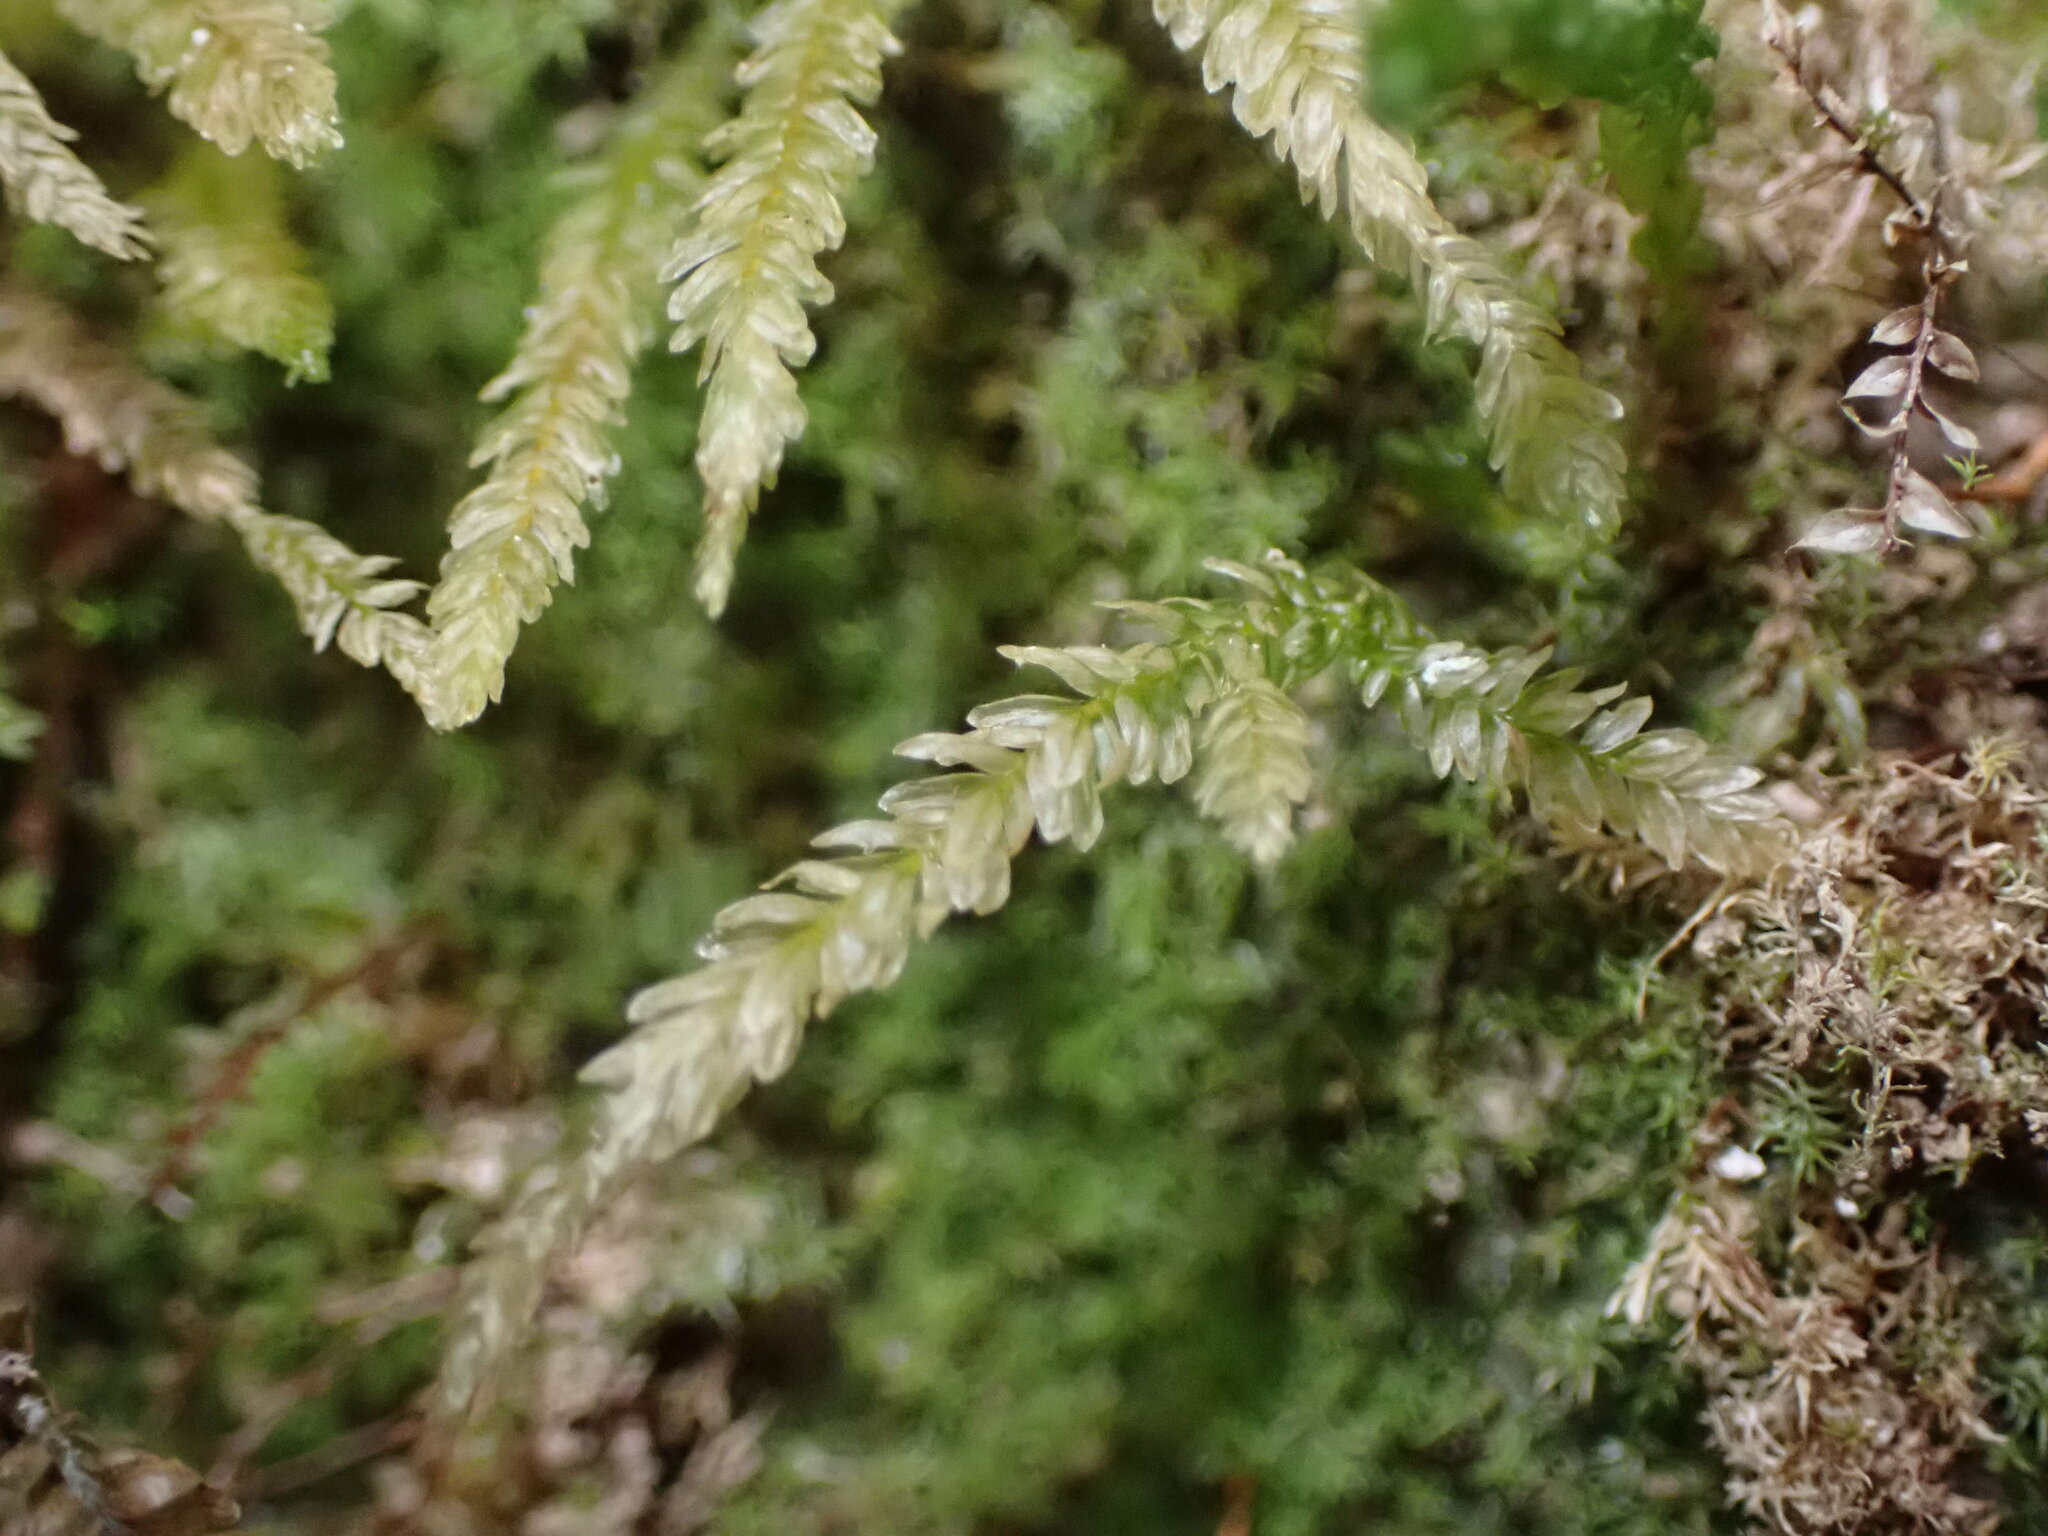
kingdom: Plantae
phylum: Bryophyta
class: Bryopsida
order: Hypnales
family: Neckeraceae
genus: Dannorrisia
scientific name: Dannorrisia bigelovii
